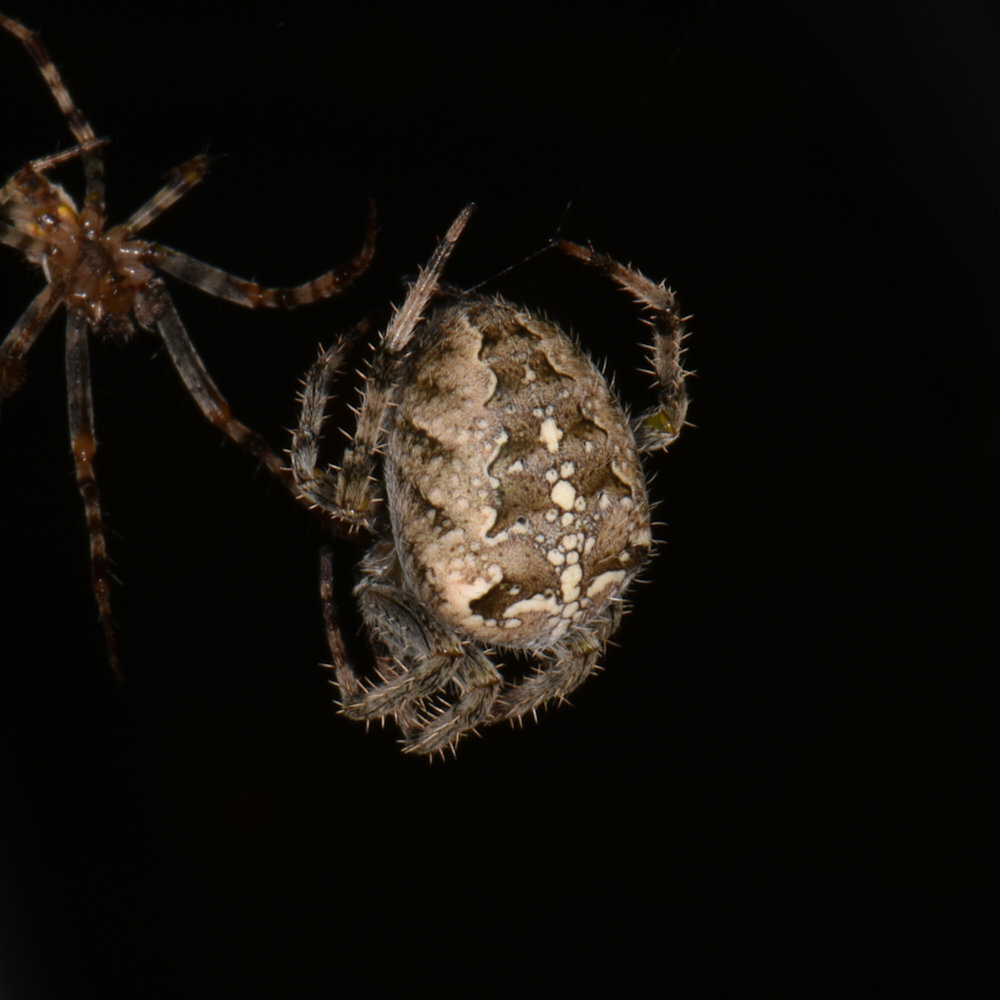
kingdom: Animalia
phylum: Arthropoda
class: Arachnida
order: Araneae
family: Araneidae
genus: Araneus
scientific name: Araneus diadematus
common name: Cross orbweaver
